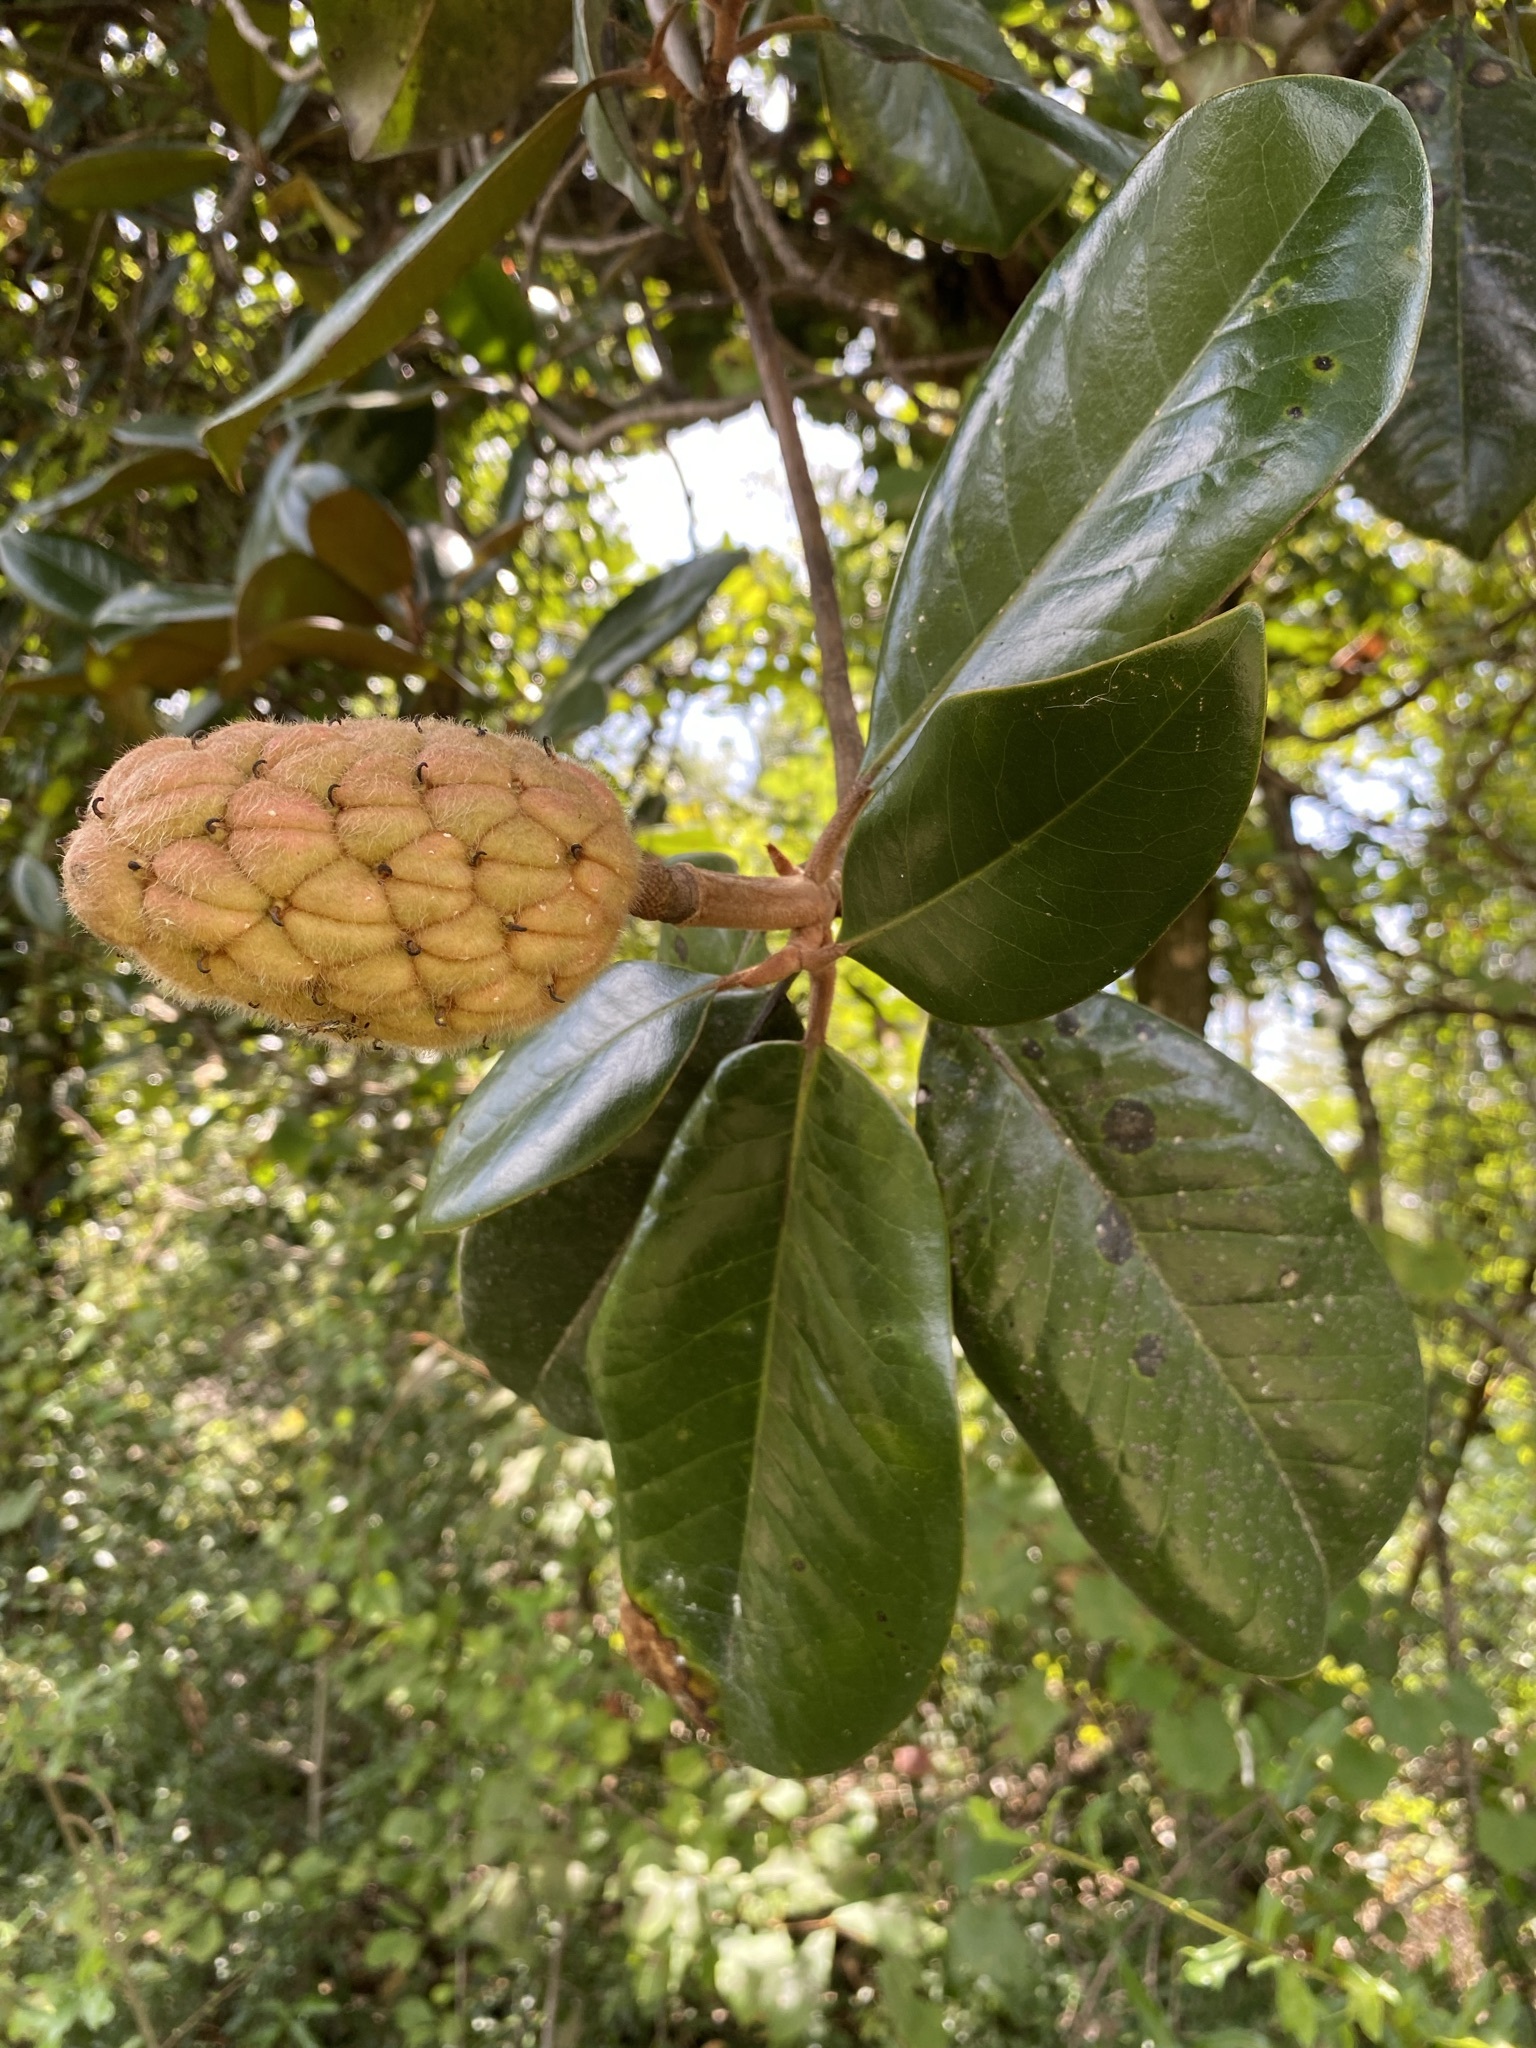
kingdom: Plantae
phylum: Tracheophyta
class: Magnoliopsida
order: Magnoliales
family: Magnoliaceae
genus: Magnolia
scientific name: Magnolia grandiflora
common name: Southern magnolia
